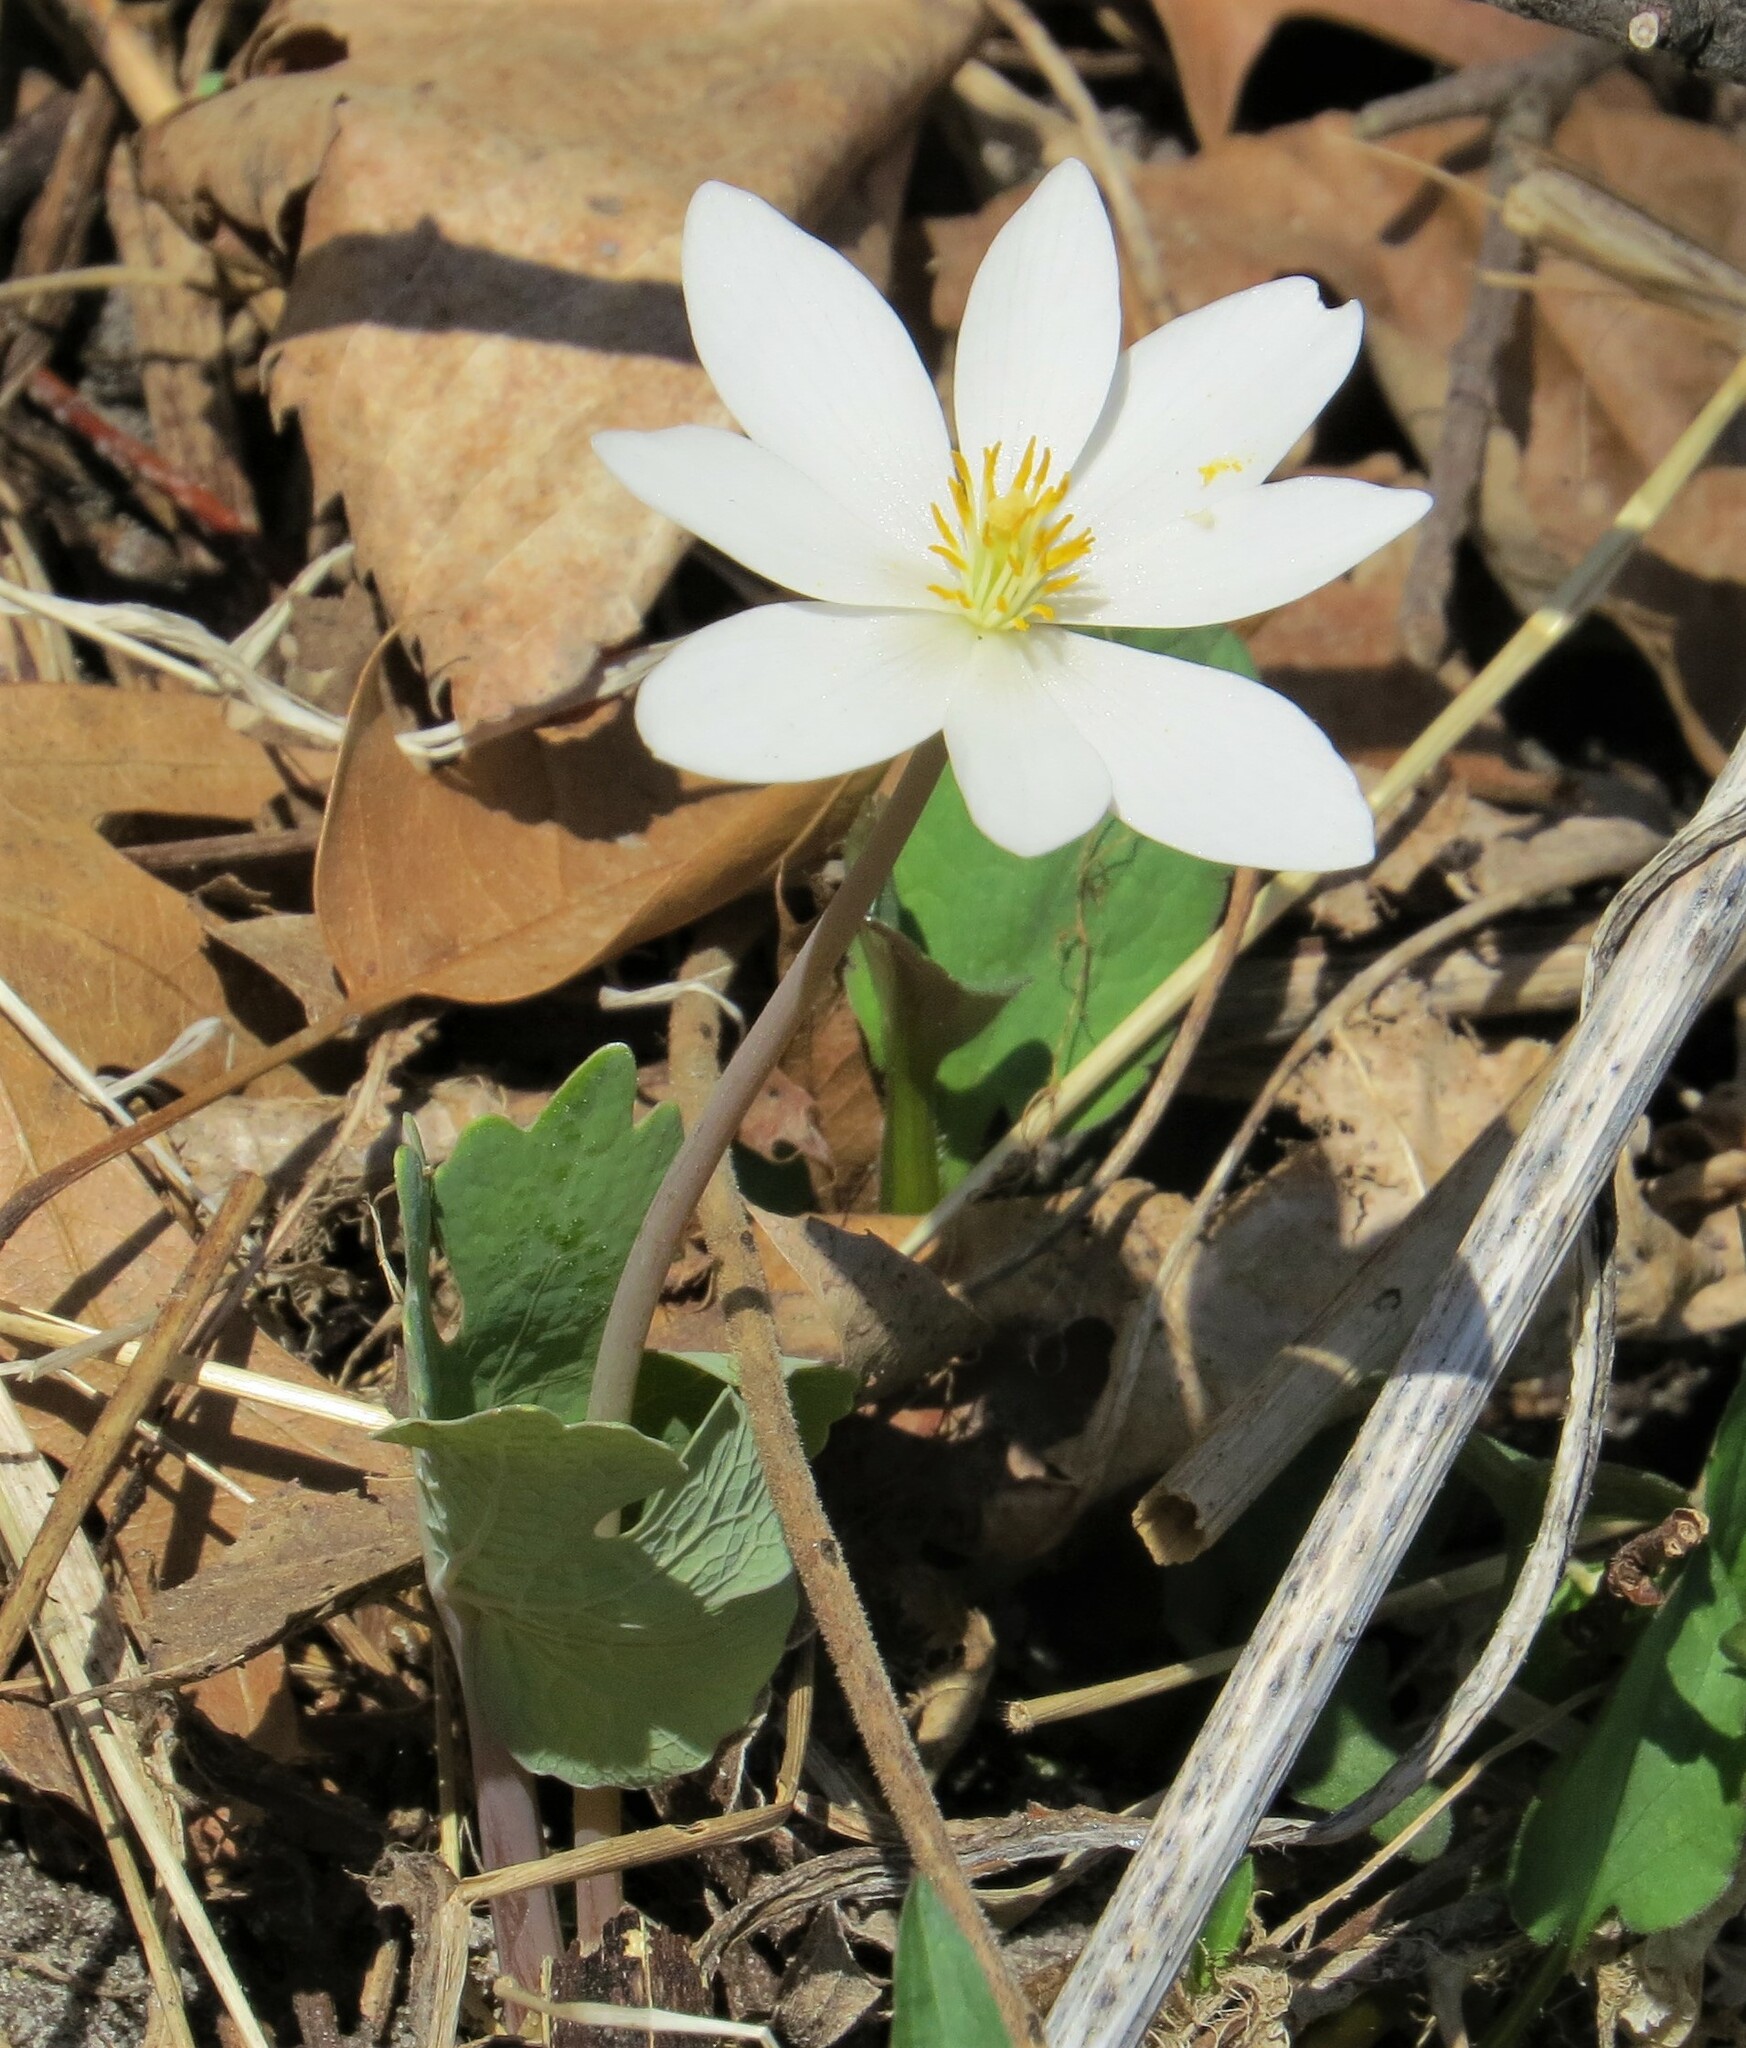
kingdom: Plantae
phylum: Tracheophyta
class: Magnoliopsida
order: Ranunculales
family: Papaveraceae
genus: Sanguinaria
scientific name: Sanguinaria canadensis
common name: Bloodroot
